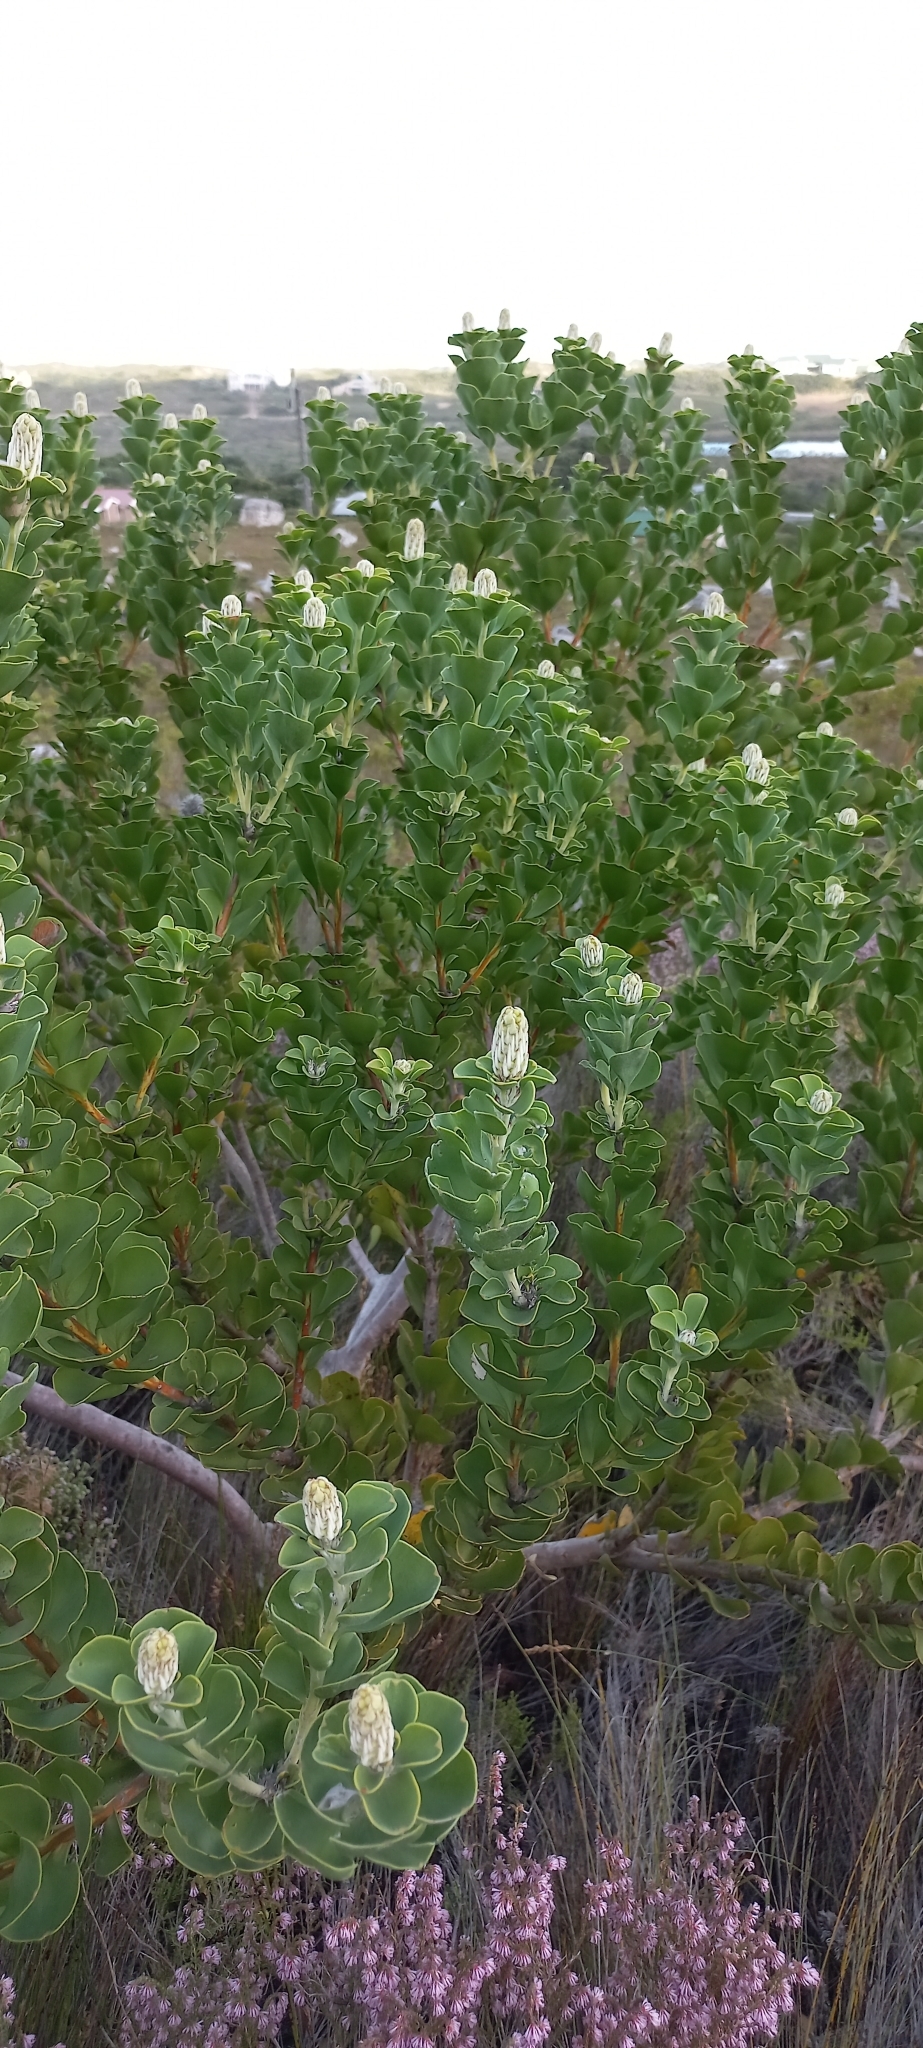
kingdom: Plantae
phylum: Tracheophyta
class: Magnoliopsida
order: Proteales
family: Proteaceae
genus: Paranomus
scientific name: Paranomus sceptrum-gustavianus
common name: King gustav's sceptre
